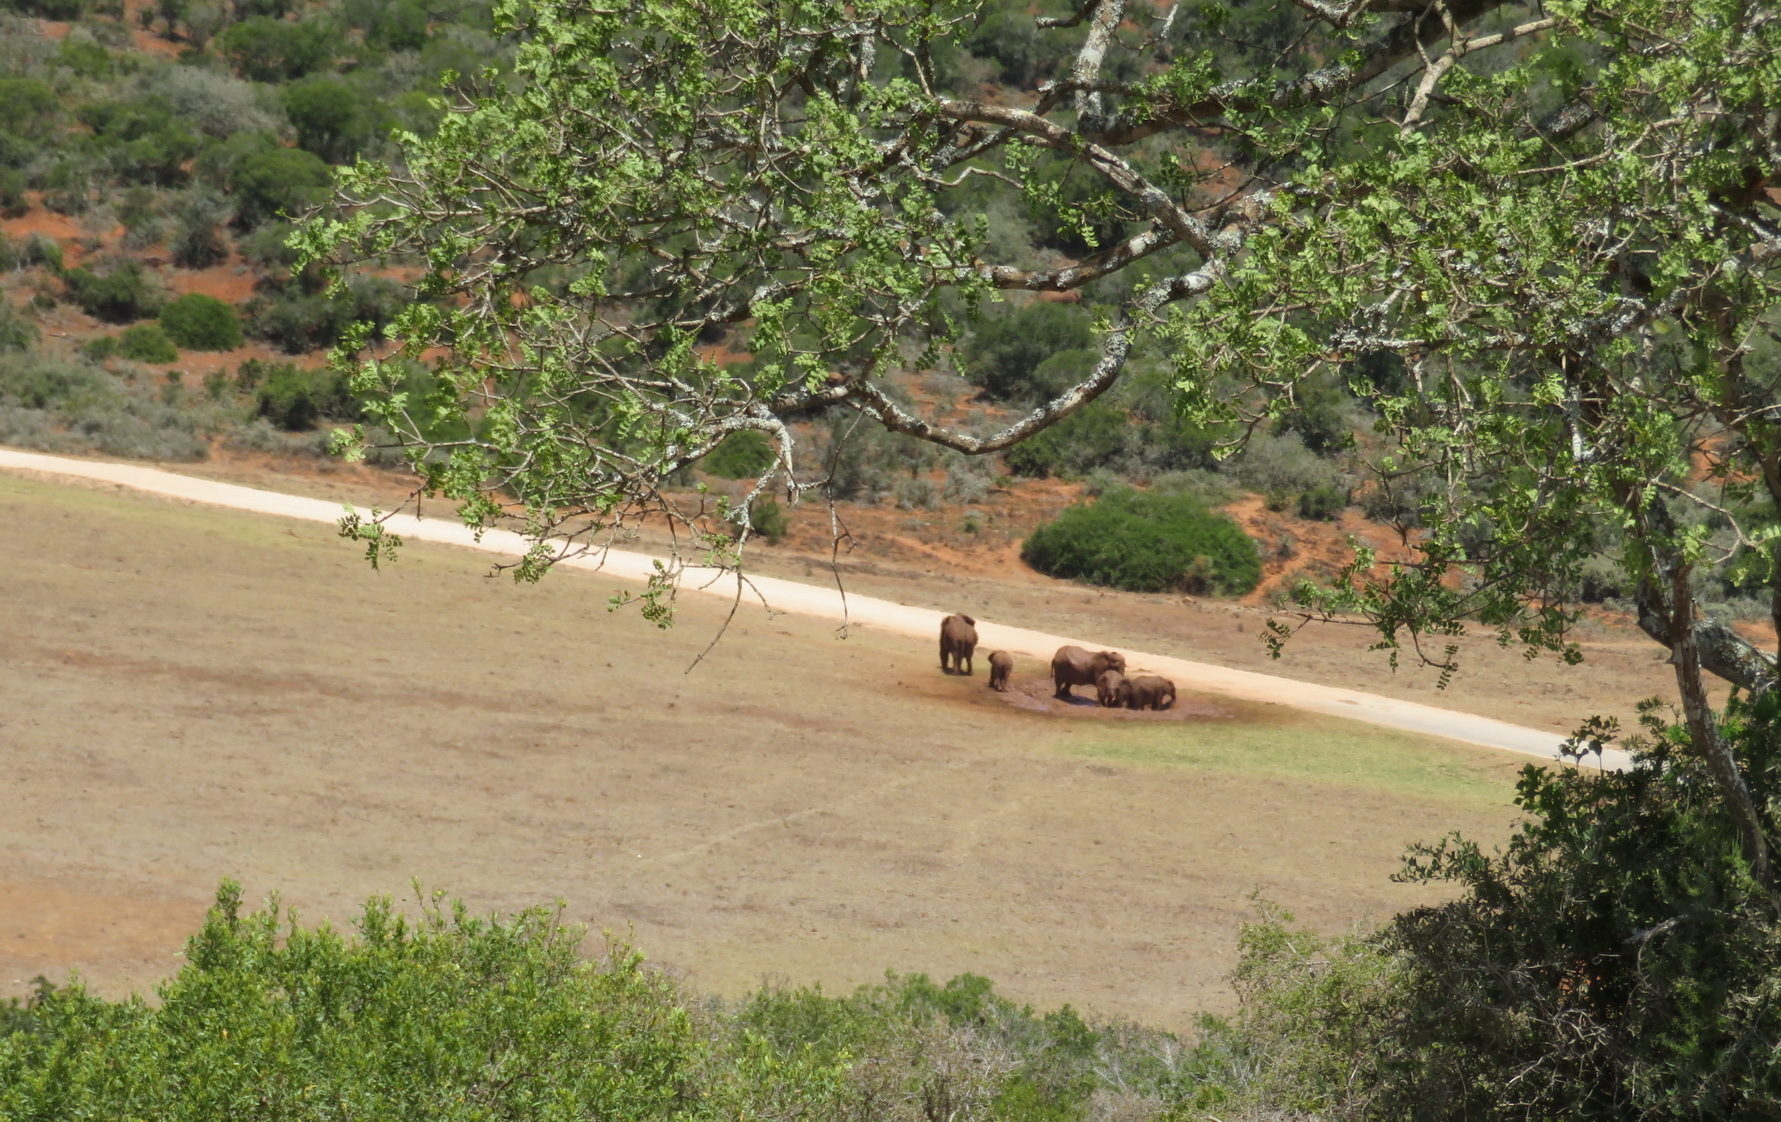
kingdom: Animalia
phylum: Chordata
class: Mammalia
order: Proboscidea
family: Elephantidae
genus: Loxodonta
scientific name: Loxodonta africana
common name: African elephant
